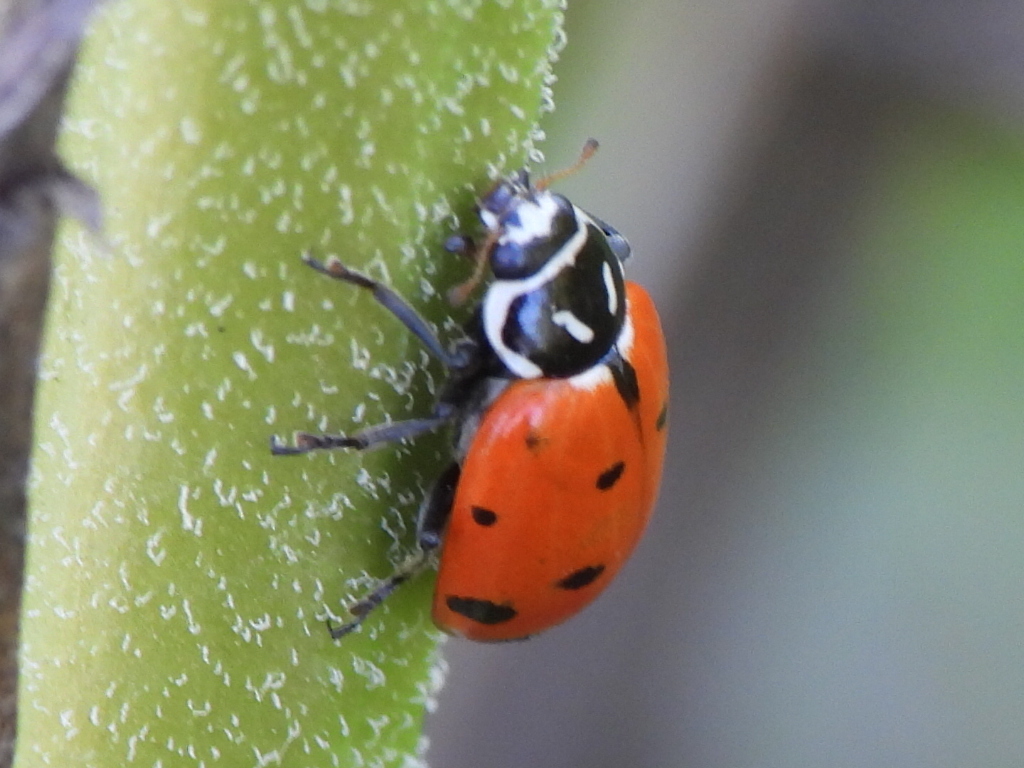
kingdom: Animalia
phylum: Arthropoda
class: Insecta
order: Coleoptera
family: Coccinellidae
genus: Hippodamia
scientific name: Hippodamia convergens
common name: Convergent lady beetle
